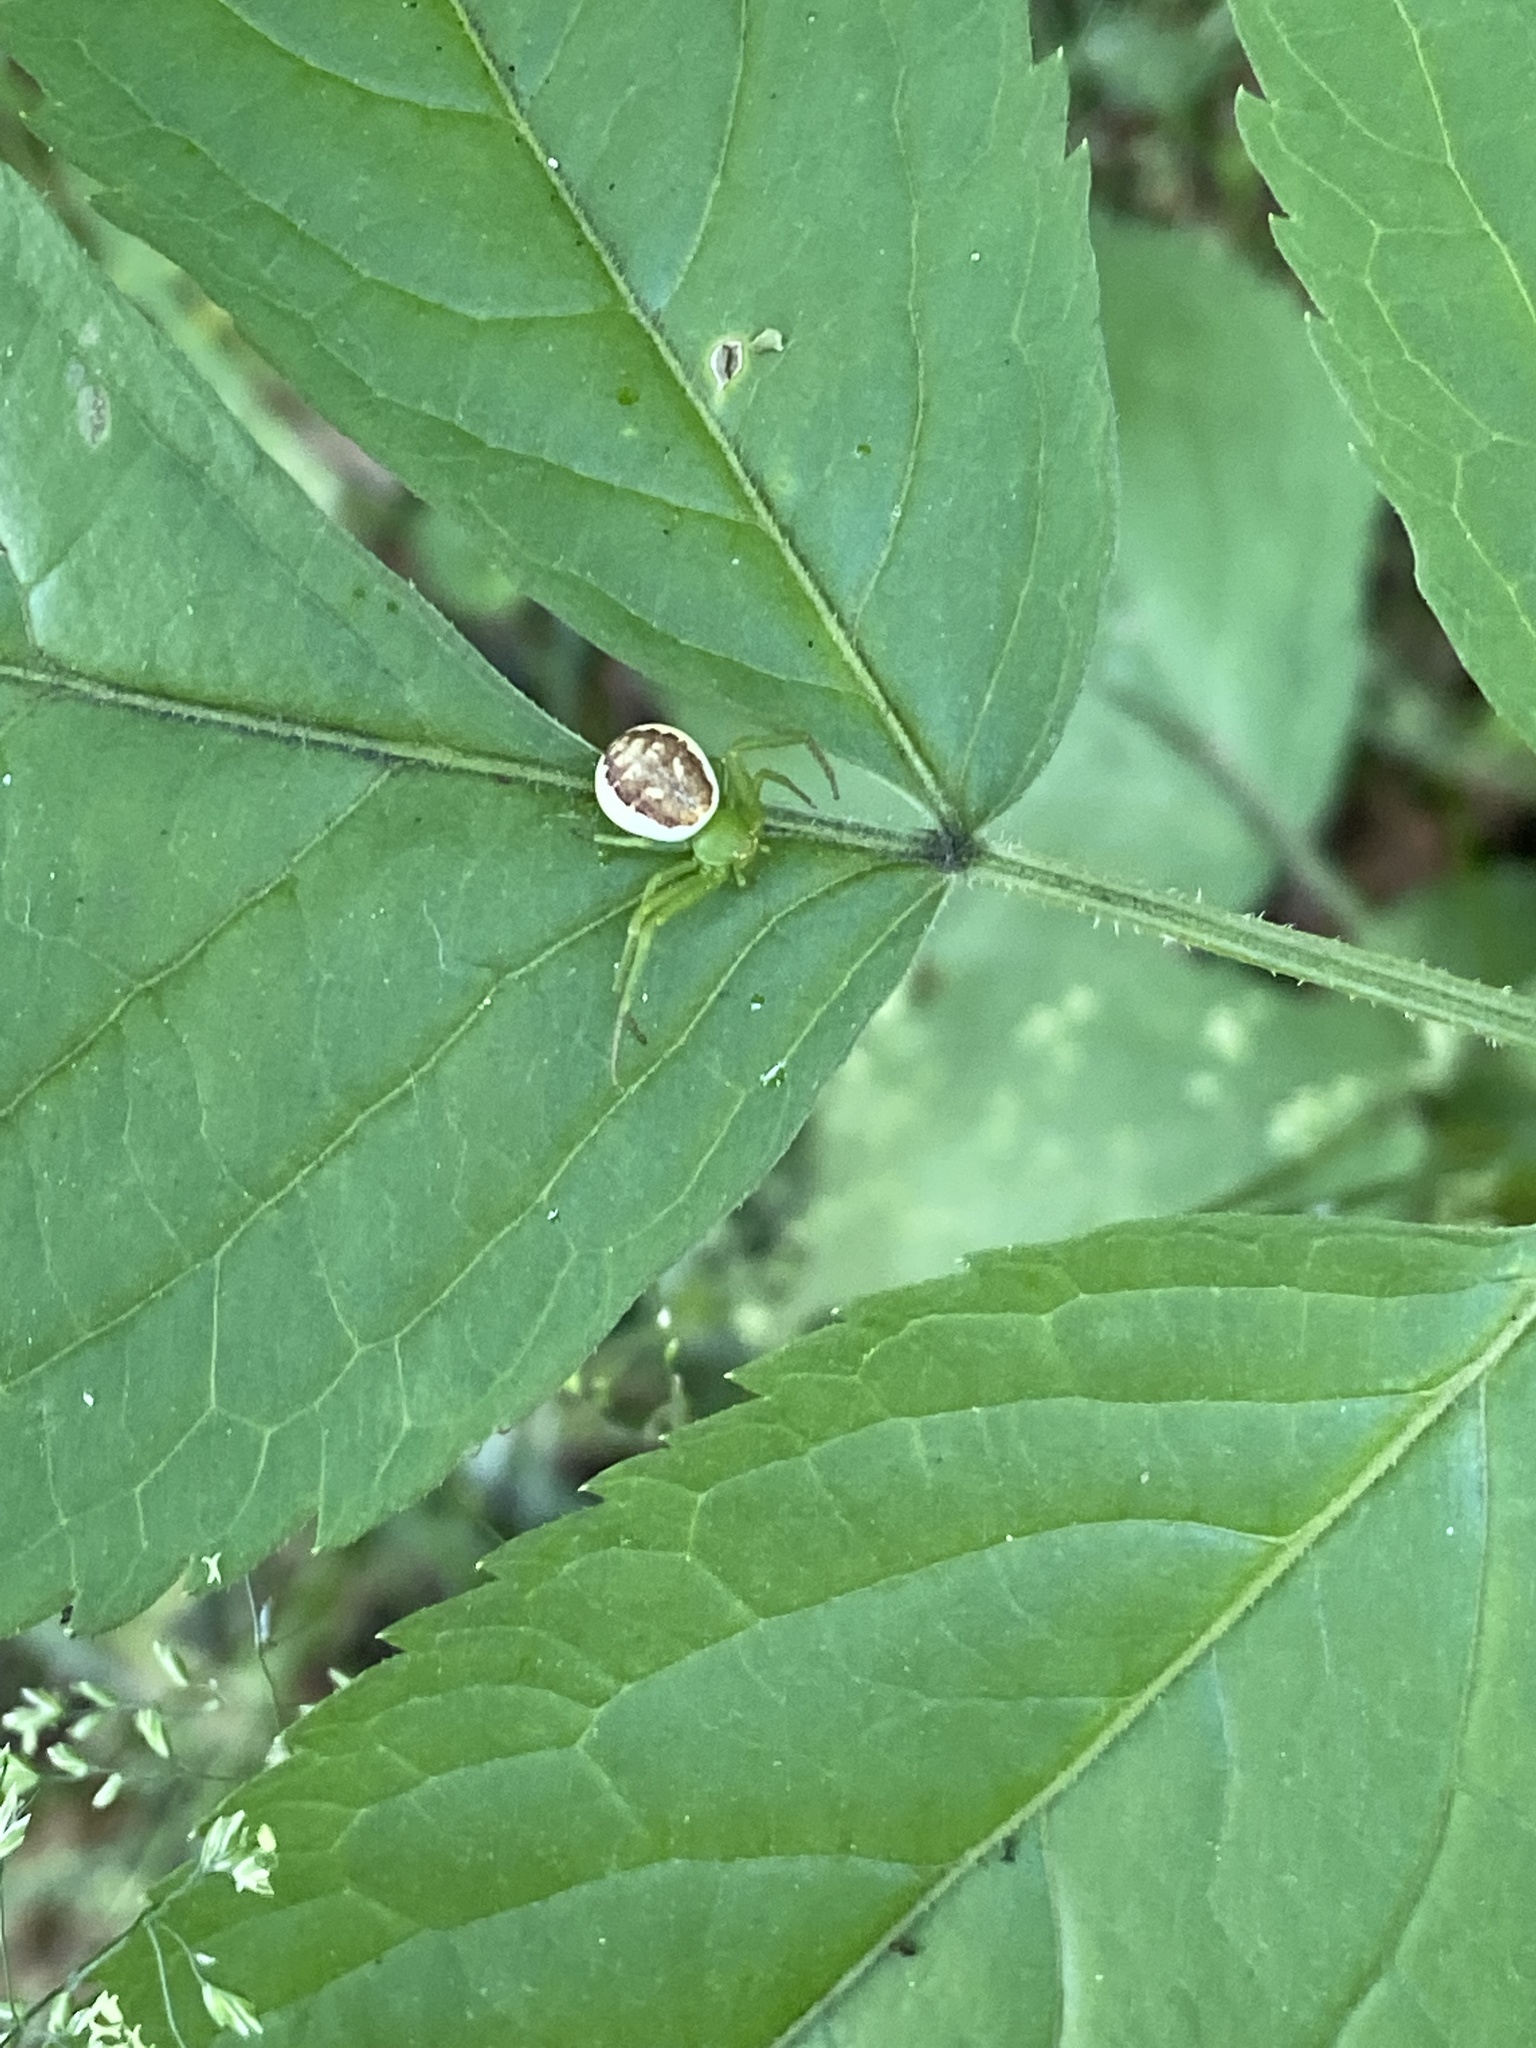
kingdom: Animalia
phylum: Arthropoda
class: Arachnida
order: Araneae
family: Thomisidae
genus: Diaea
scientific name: Diaea dorsata
